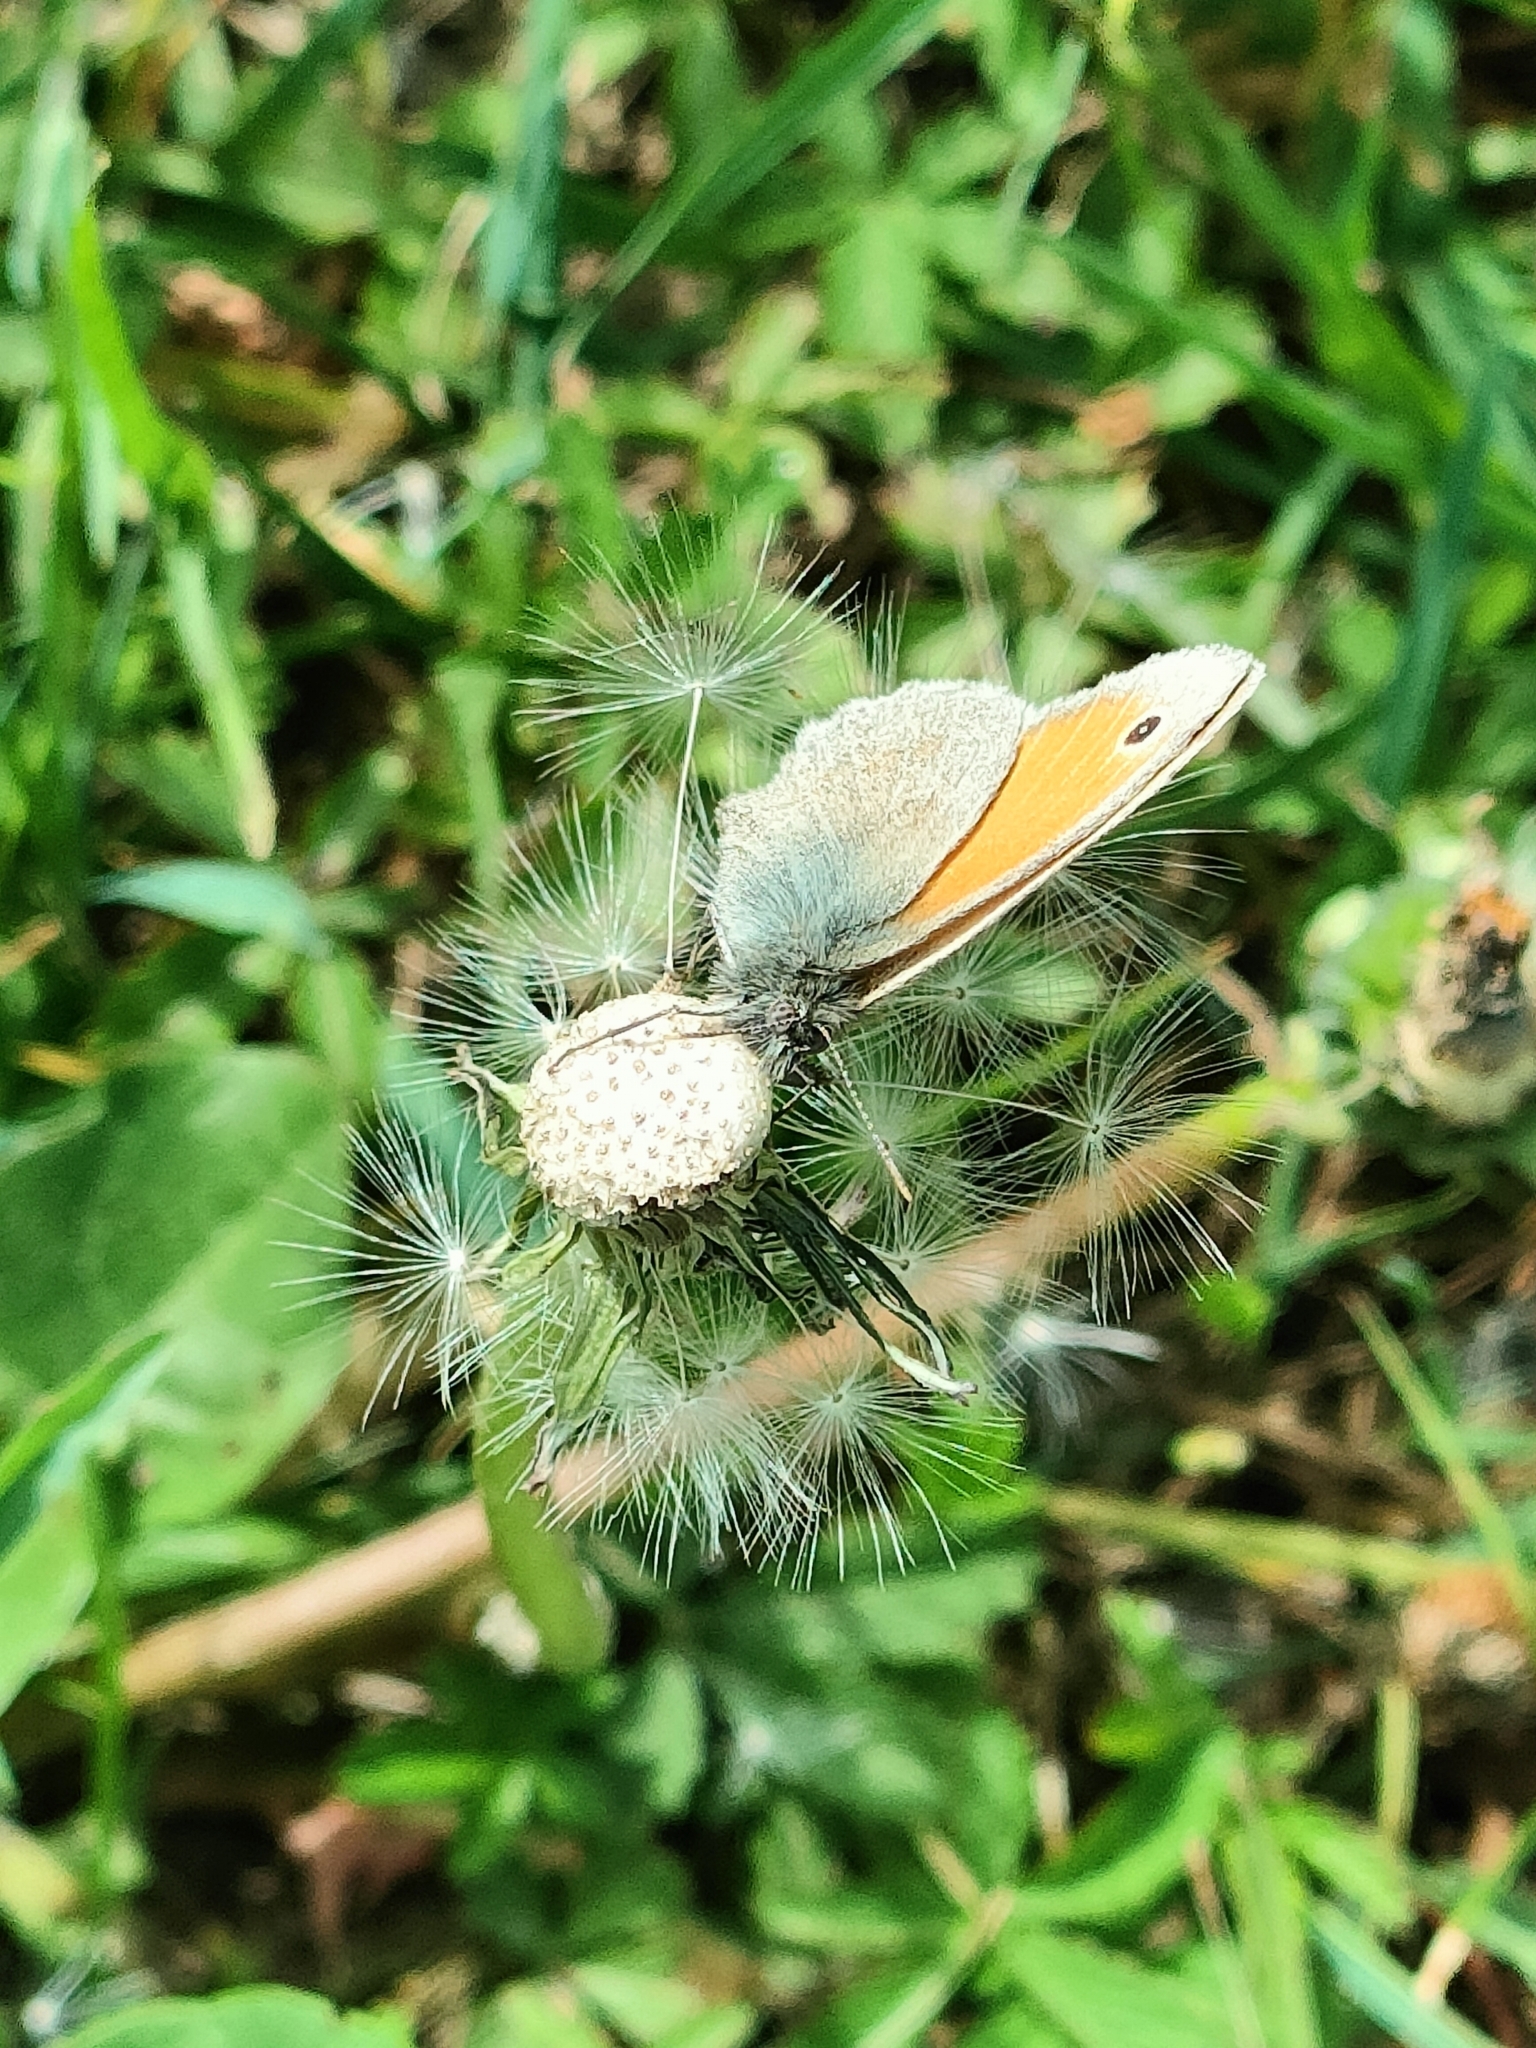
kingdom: Animalia
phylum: Arthropoda
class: Insecta
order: Lepidoptera
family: Nymphalidae
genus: Coenonympha
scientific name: Coenonympha pamphilus
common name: Small heath
